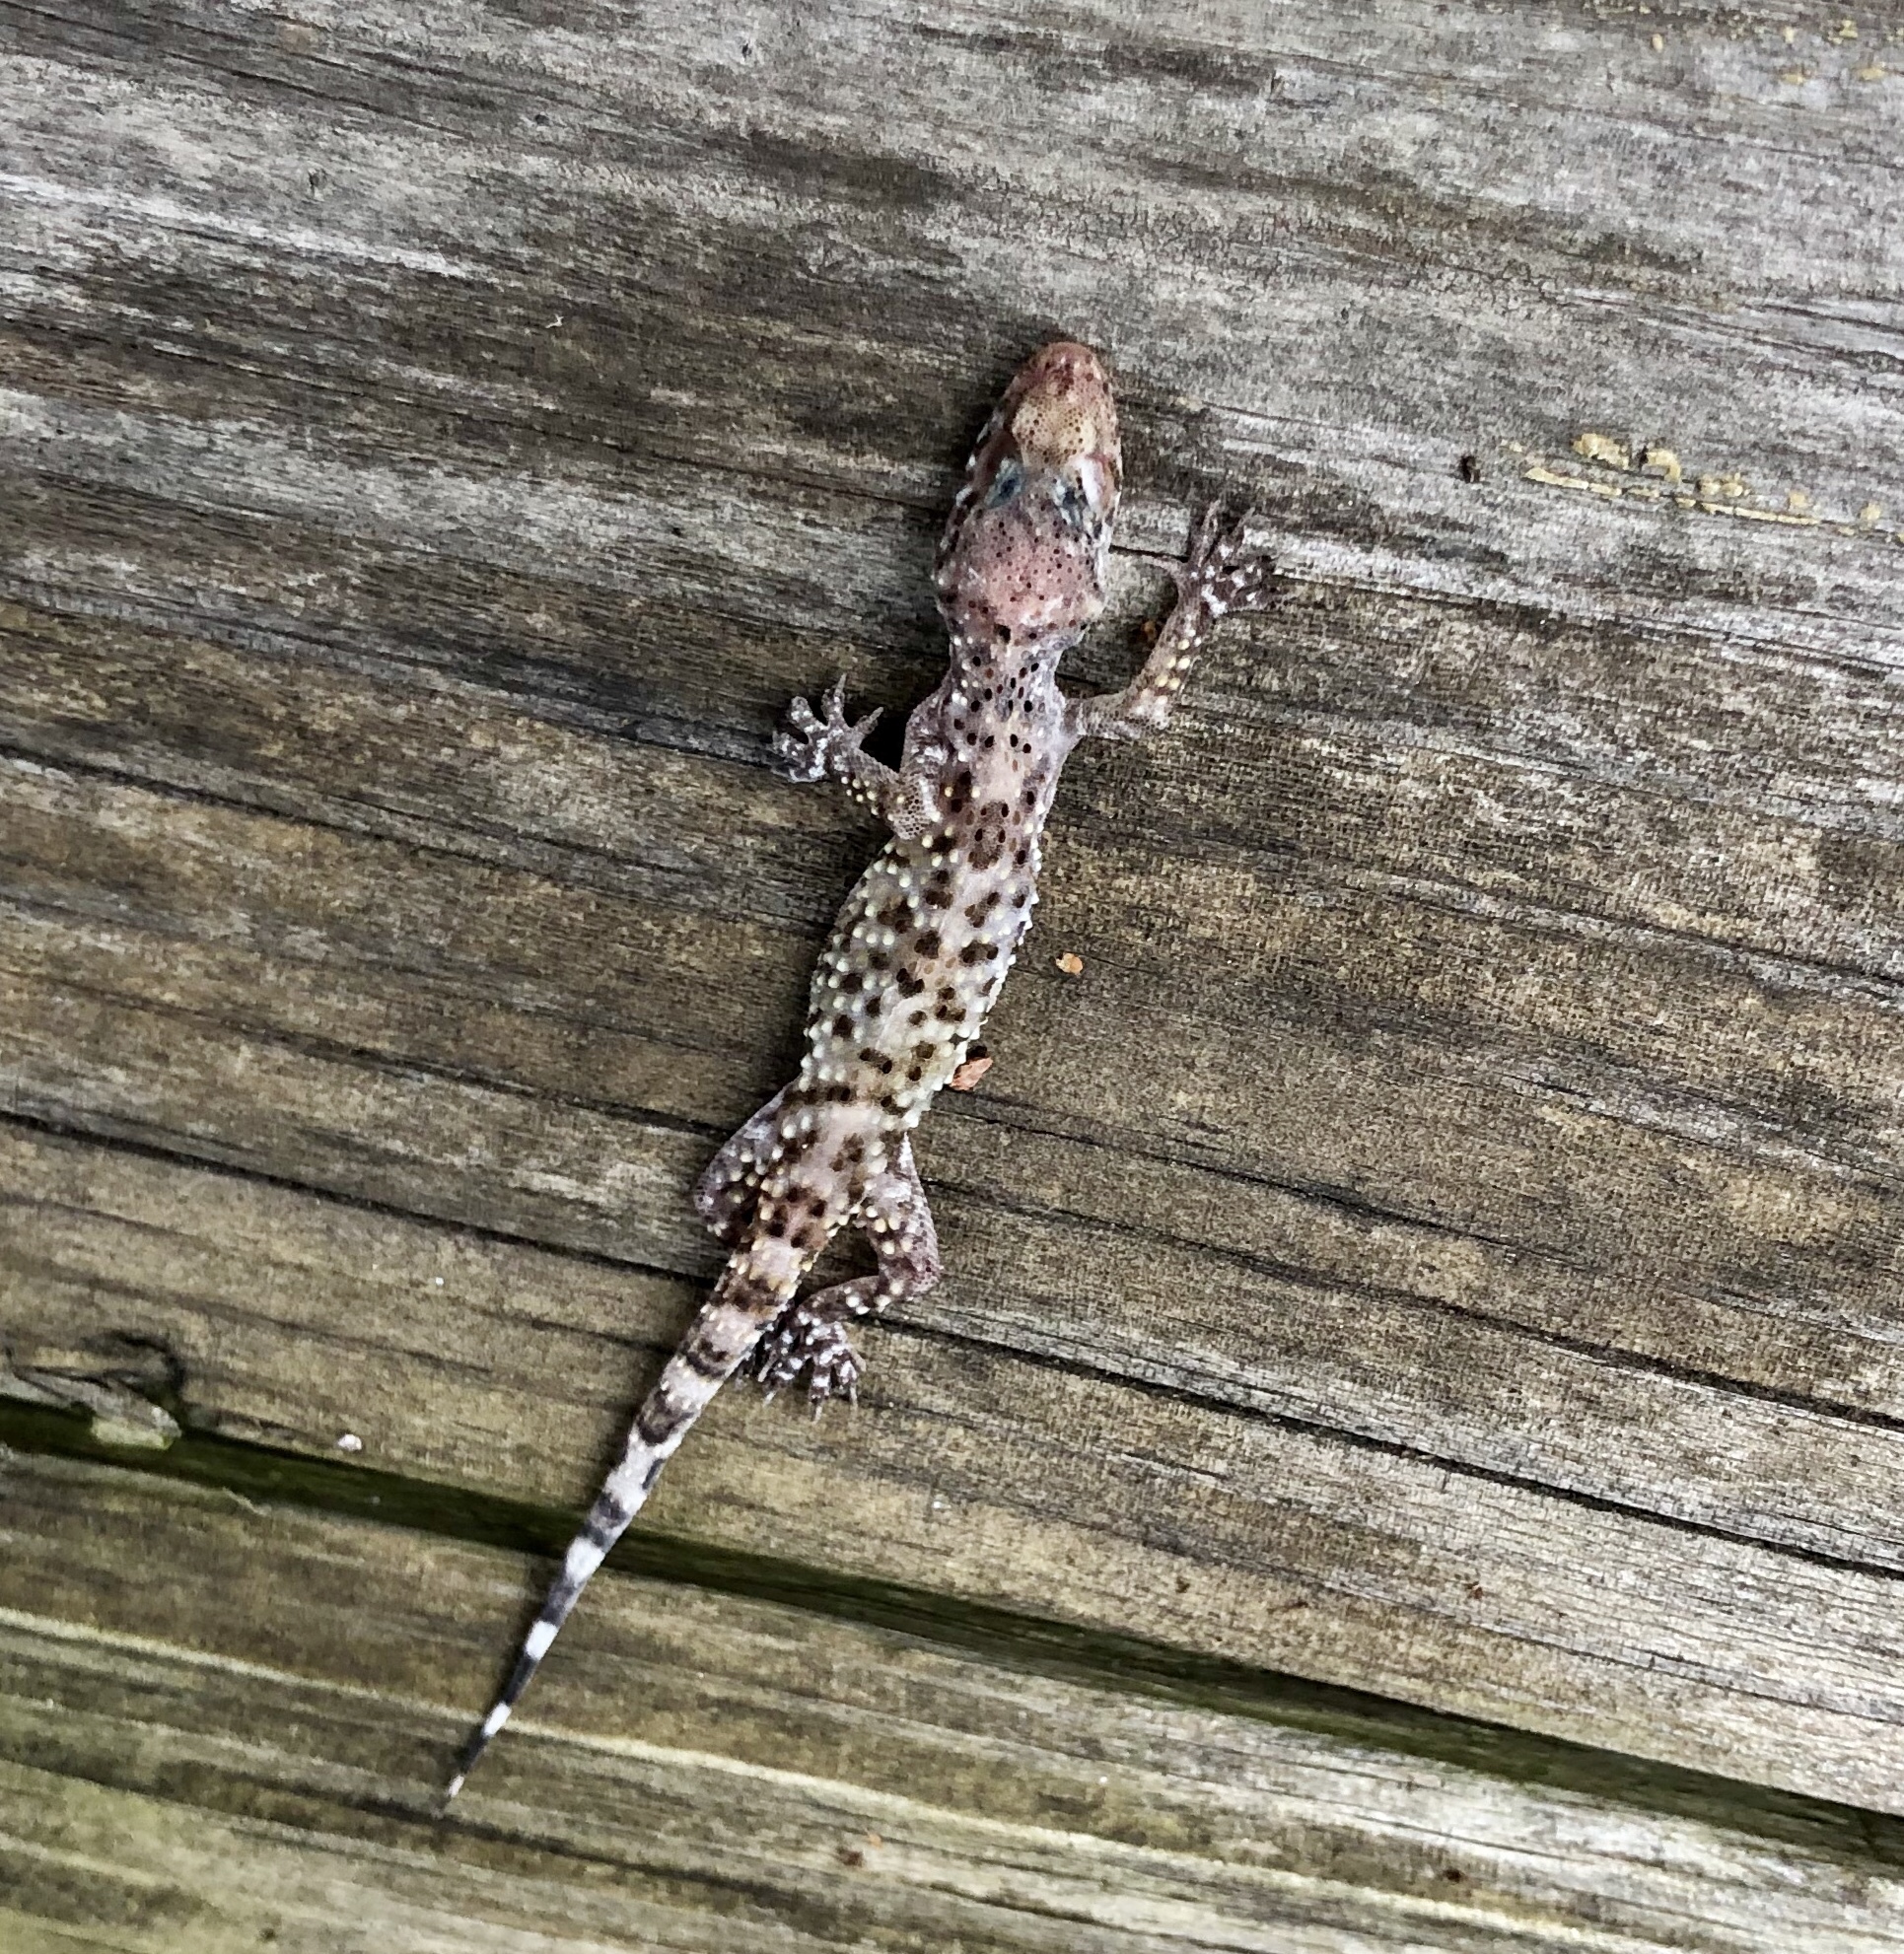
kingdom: Animalia
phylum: Chordata
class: Squamata
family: Gekkonidae
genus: Hemidactylus
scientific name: Hemidactylus turcicus
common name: Turkish gecko
